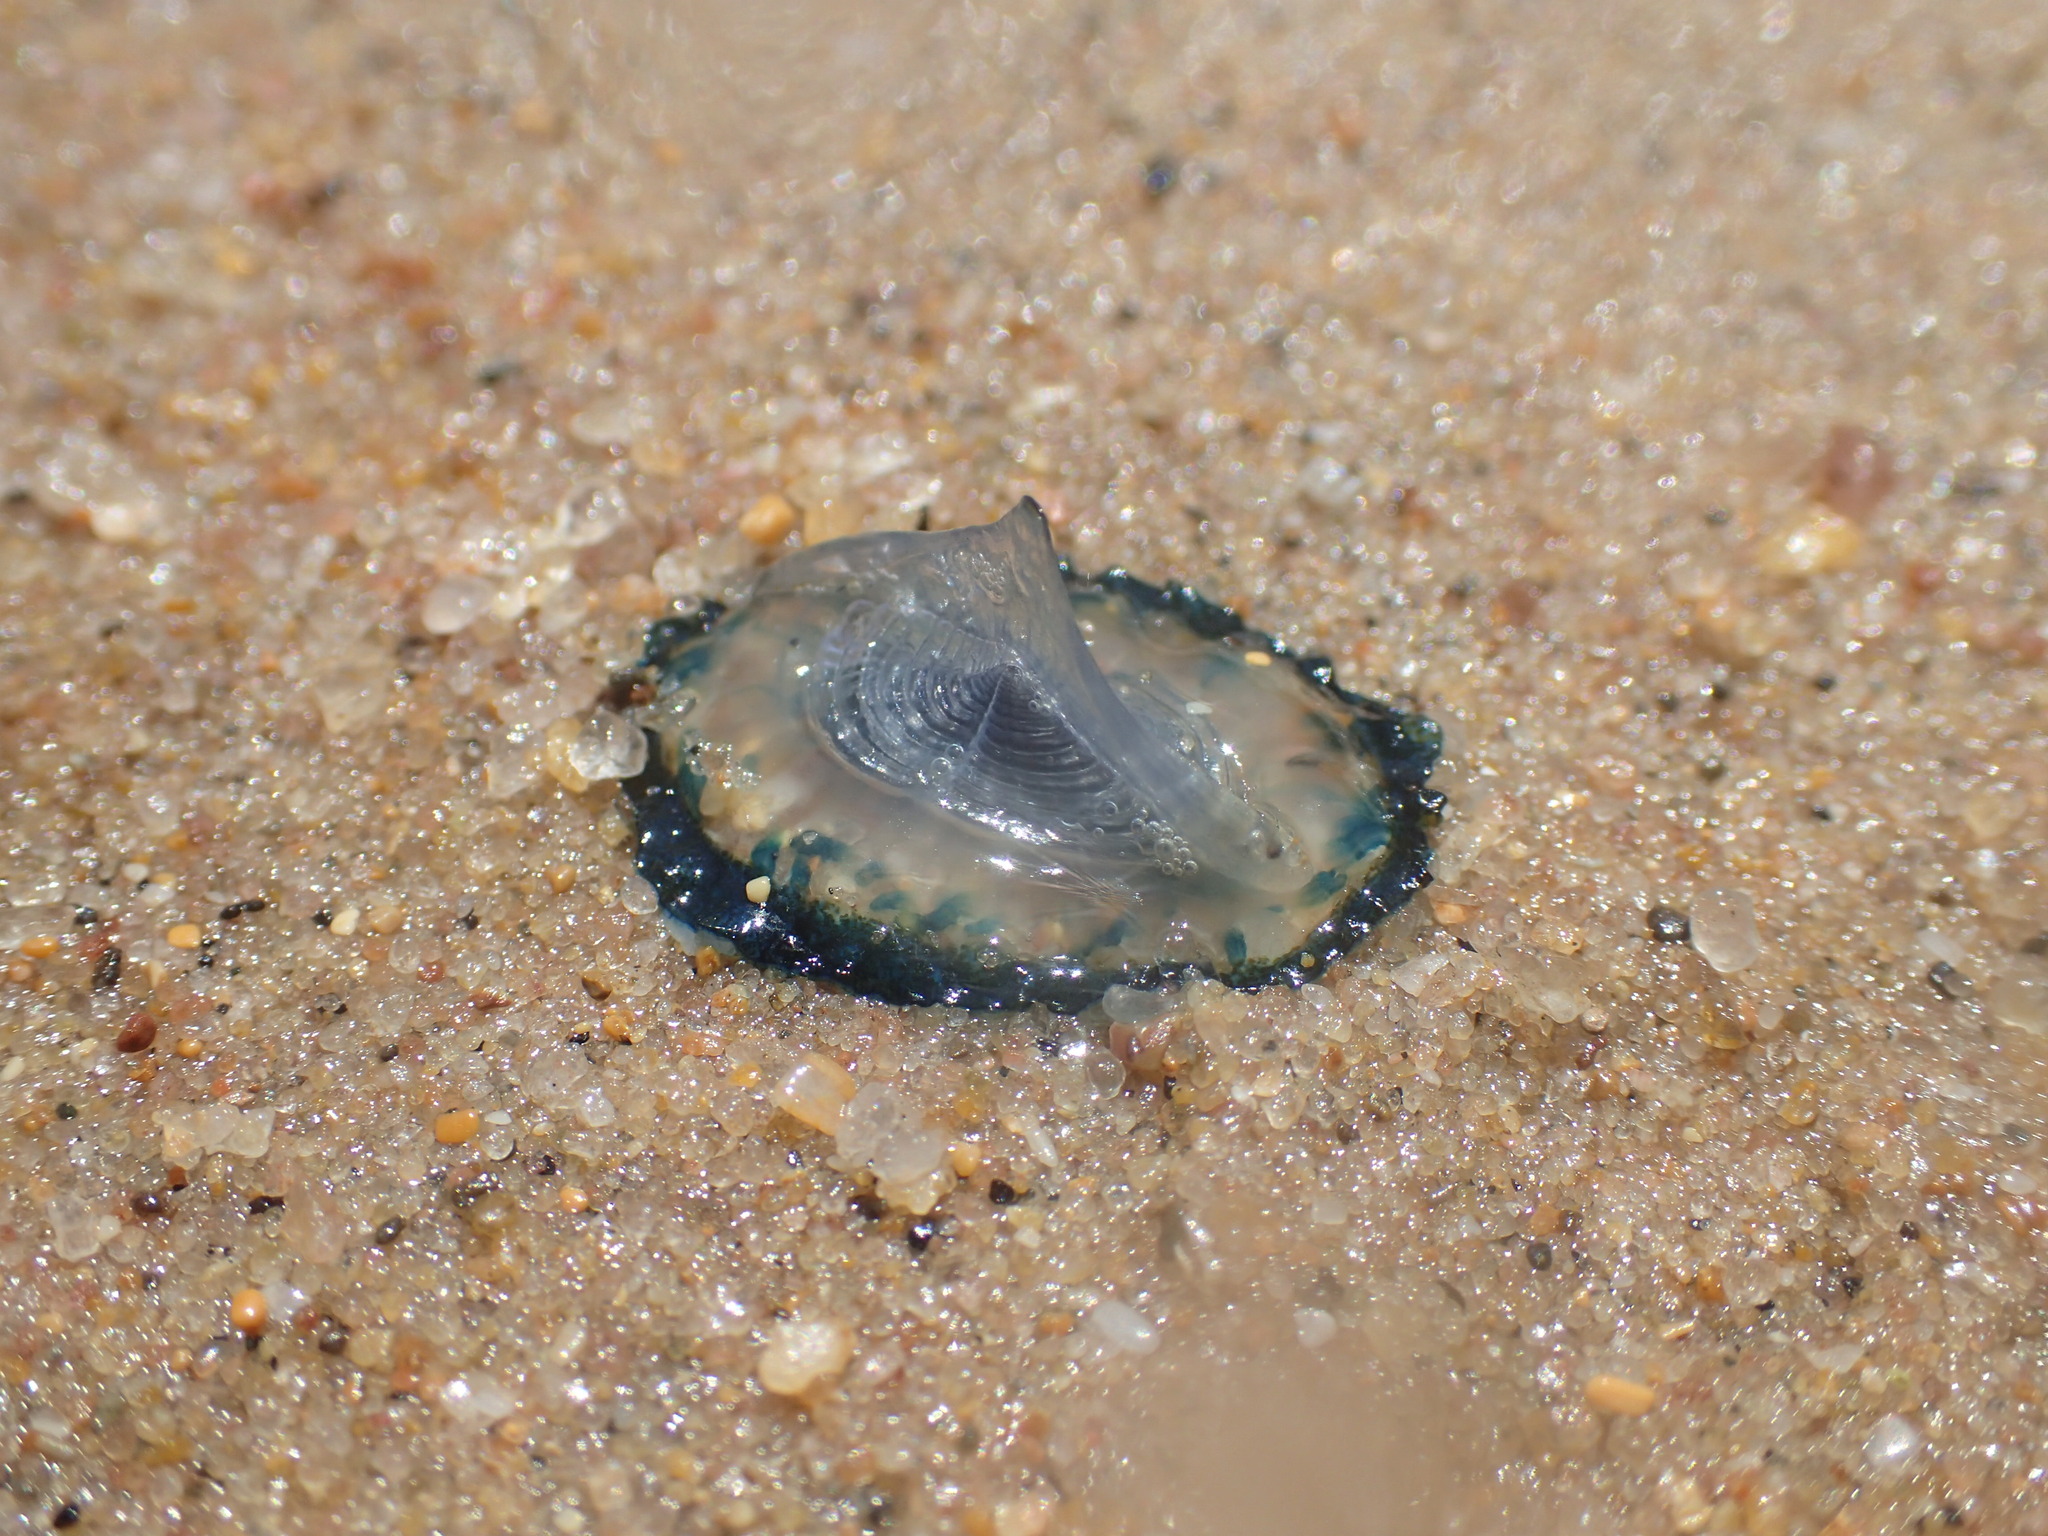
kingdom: Animalia
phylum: Cnidaria
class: Hydrozoa
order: Anthoathecata
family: Porpitidae
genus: Velella
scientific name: Velella velella
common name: By-the-wind-sailor
